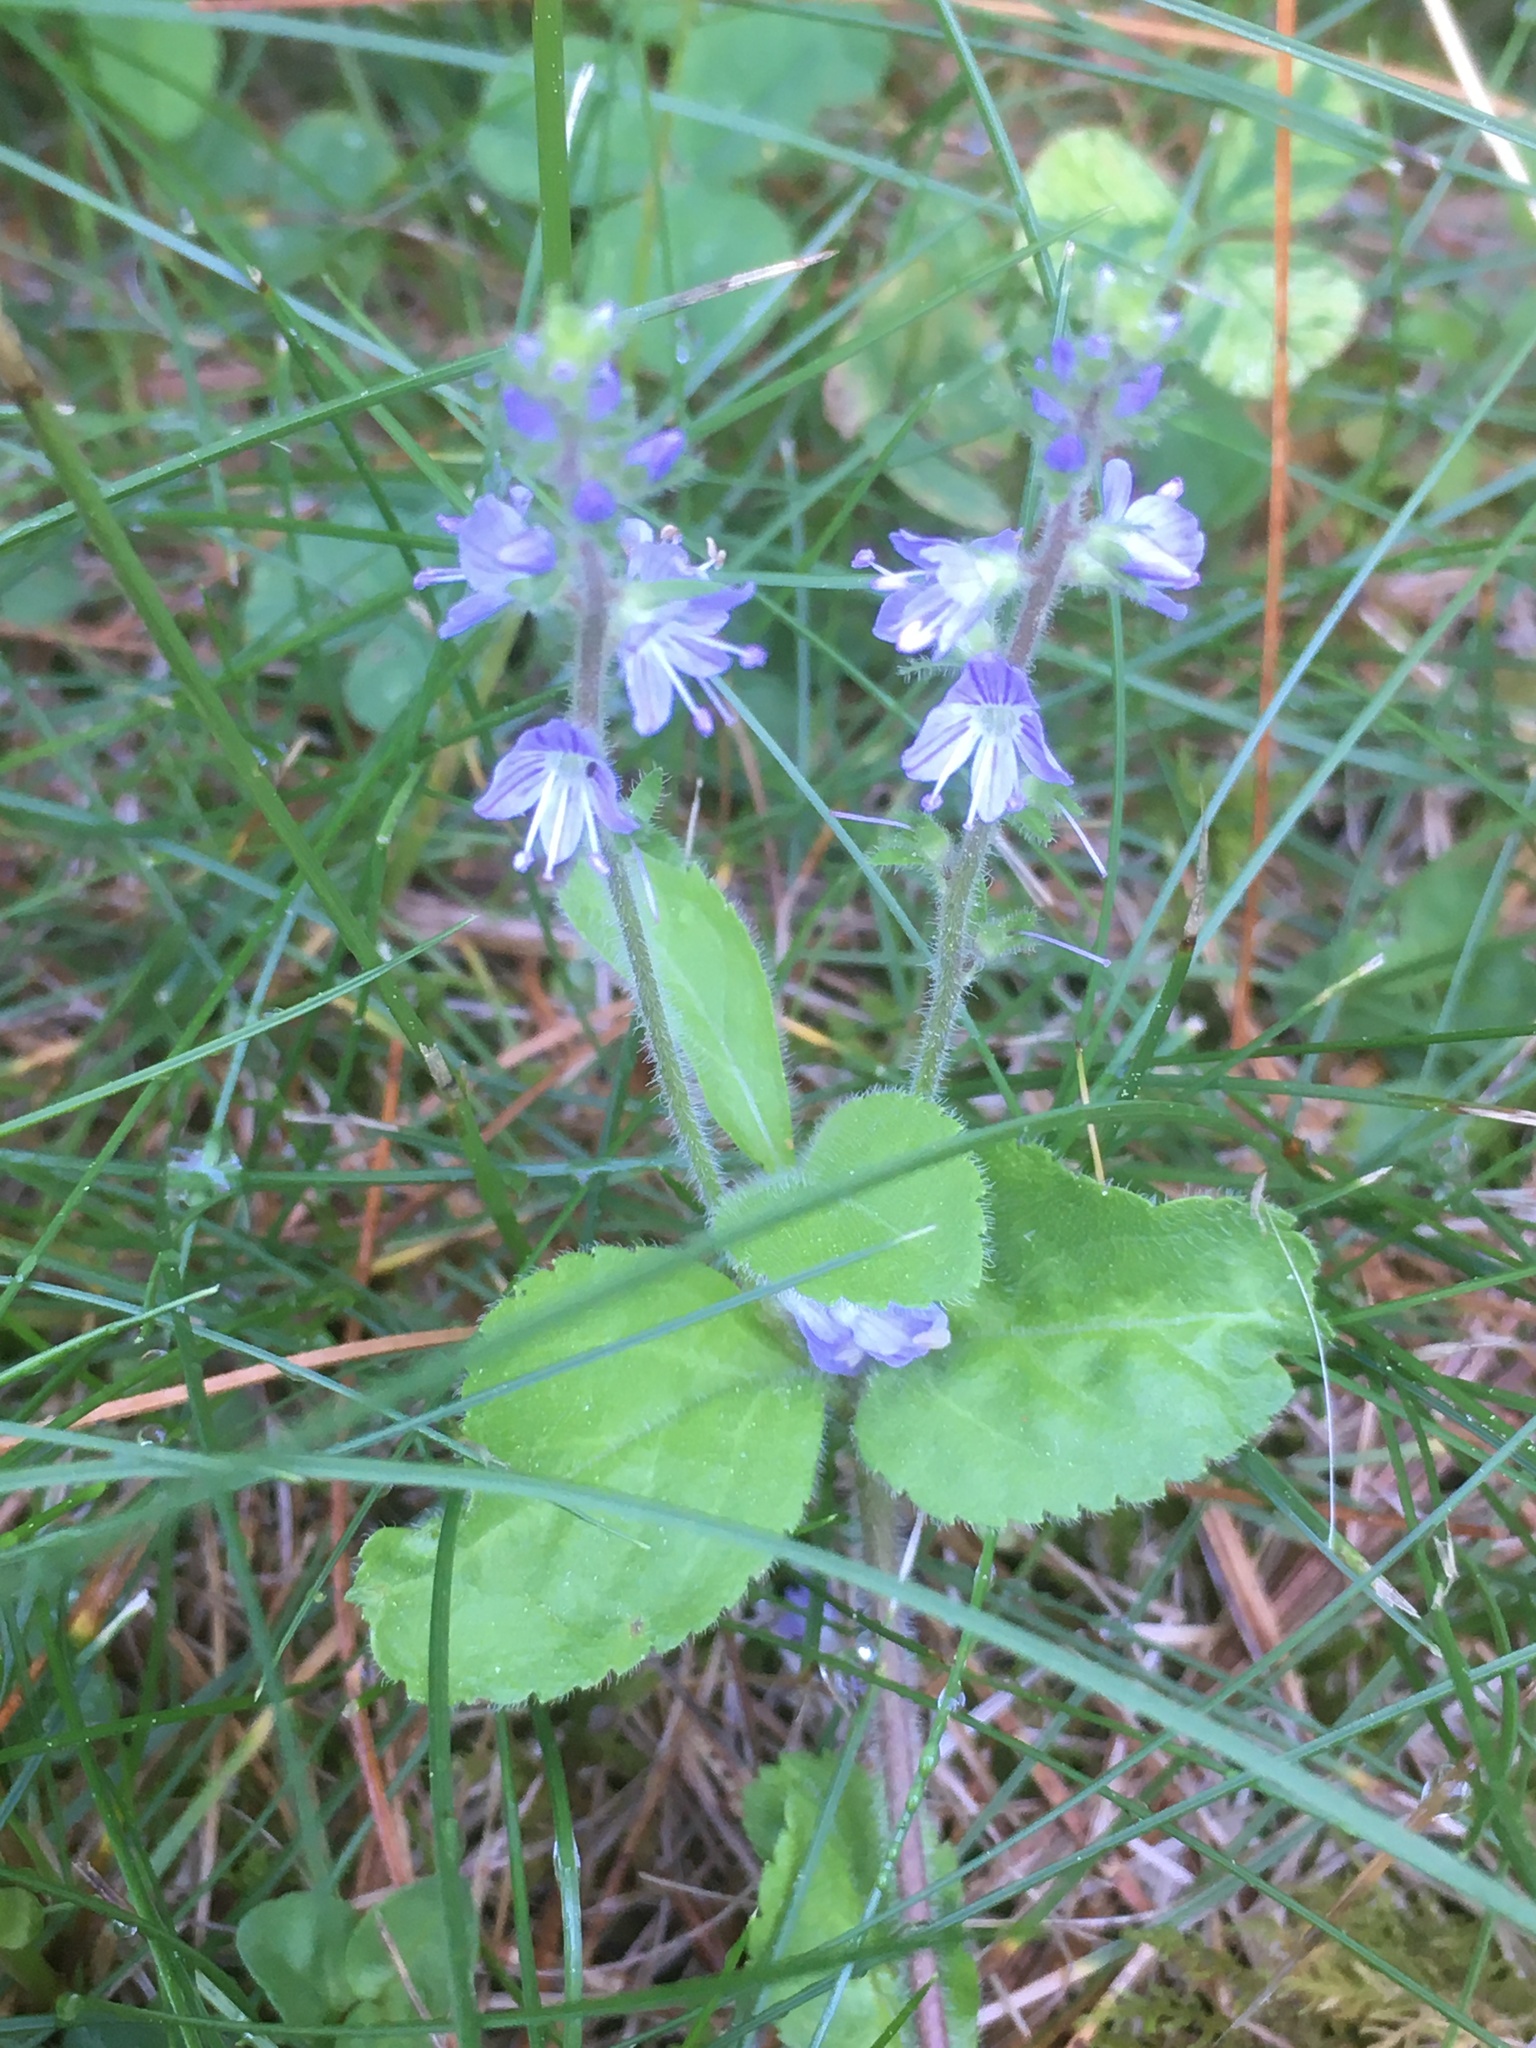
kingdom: Plantae
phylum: Tracheophyta
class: Magnoliopsida
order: Lamiales
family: Plantaginaceae
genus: Veronica
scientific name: Veronica officinalis
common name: Common speedwell
